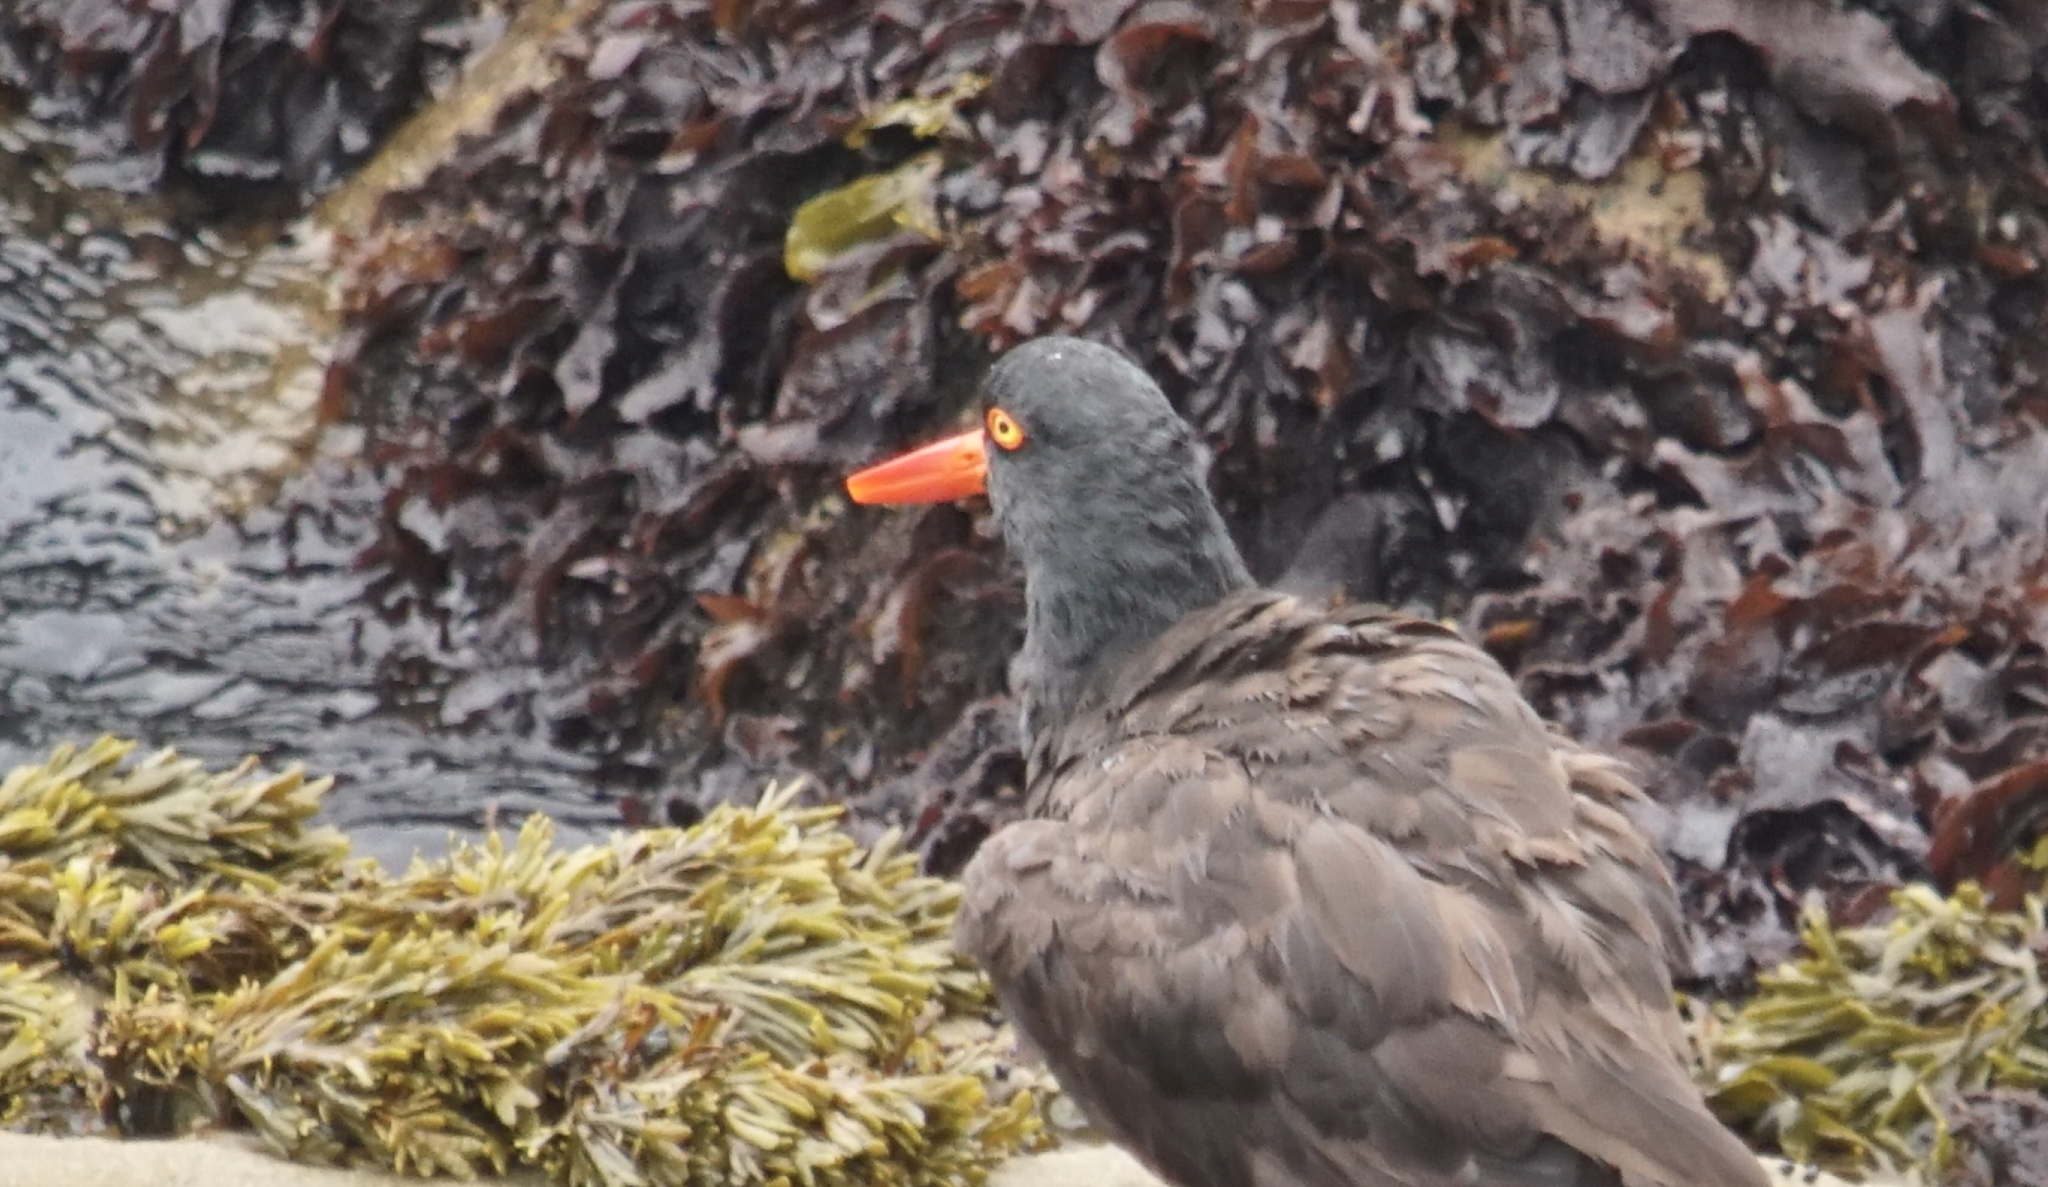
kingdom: Animalia
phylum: Chordata
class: Aves
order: Charadriiformes
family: Haematopodidae
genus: Haematopus
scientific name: Haematopus bachmani
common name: Black oystercatcher
